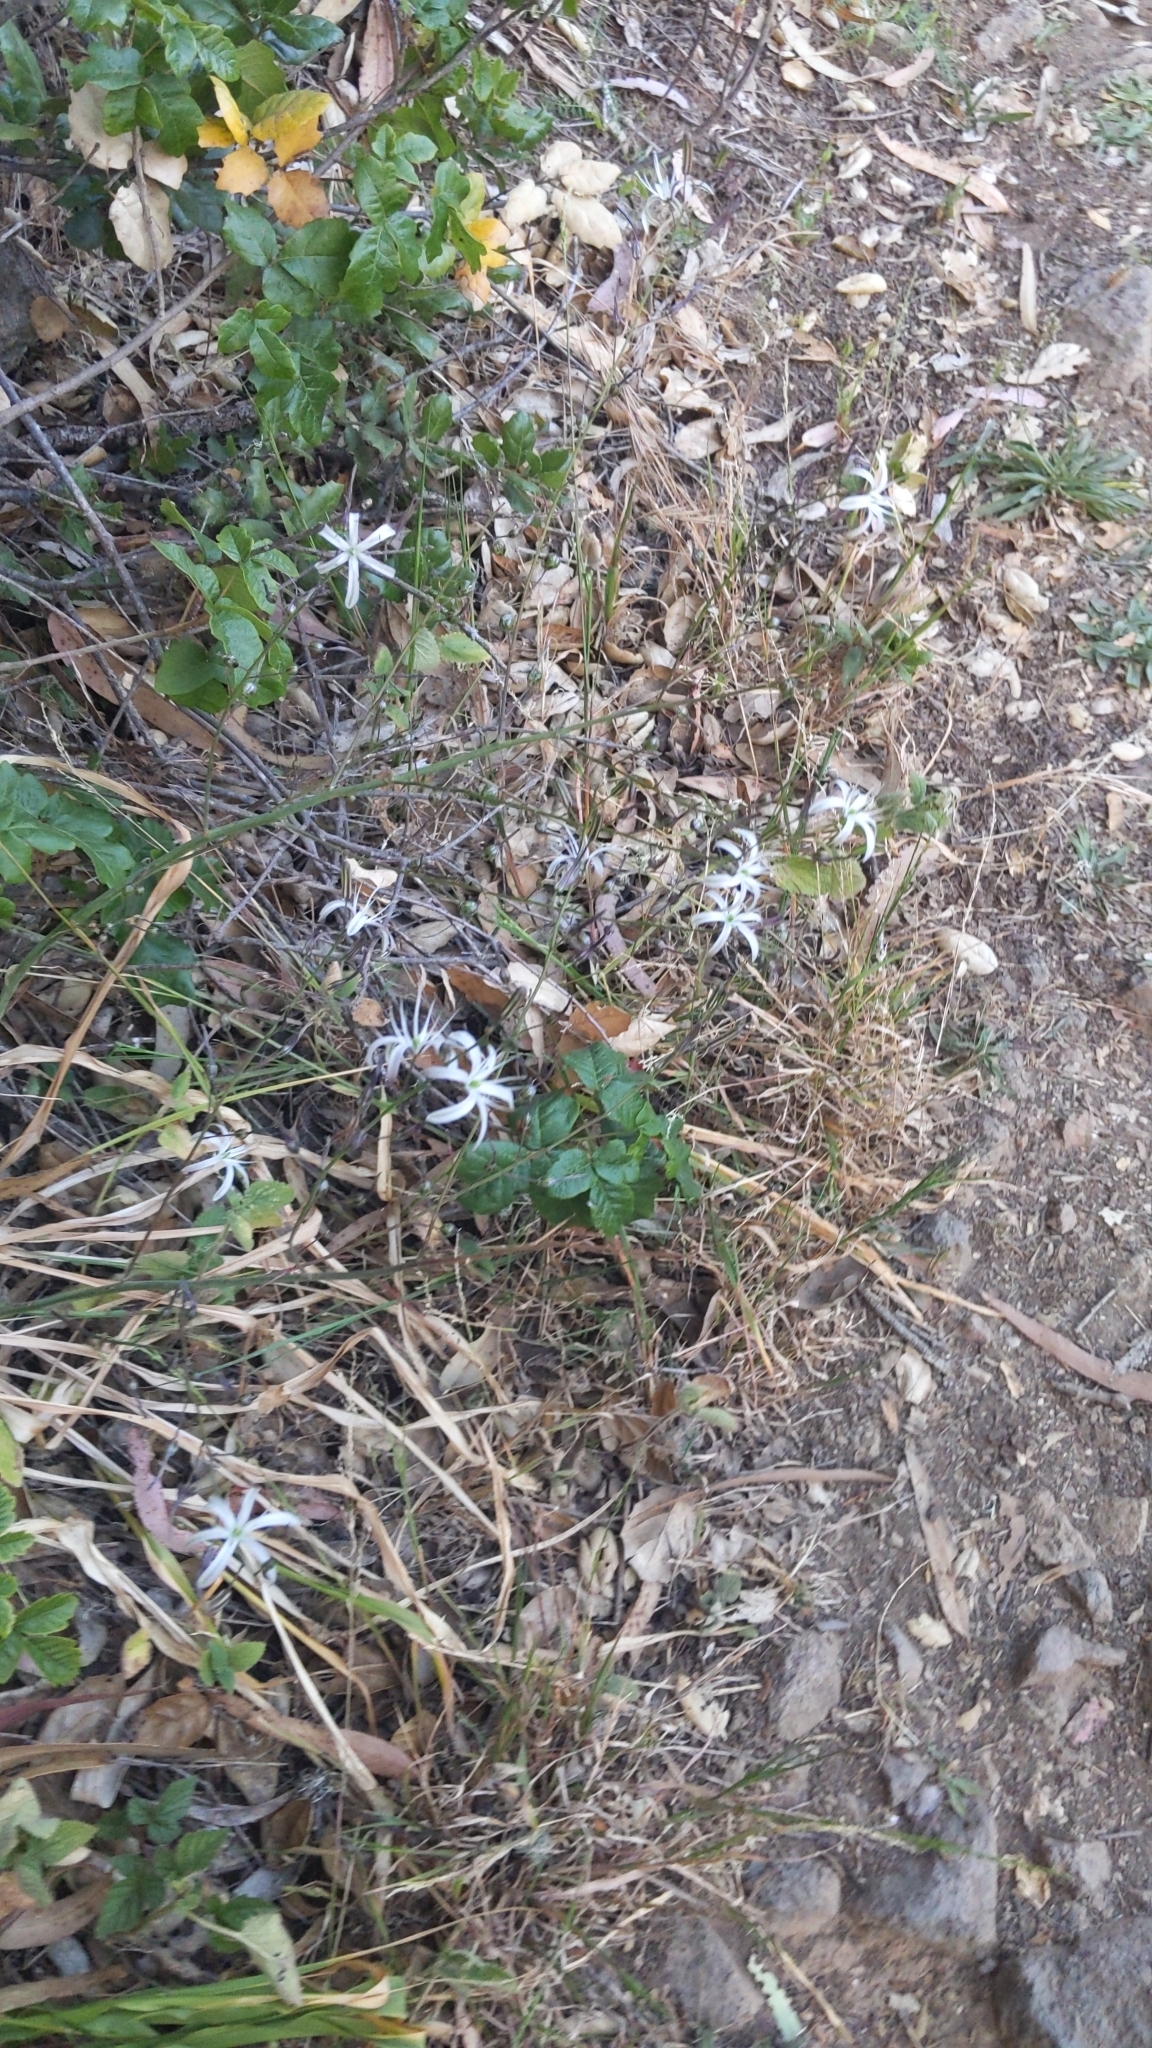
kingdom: Plantae
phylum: Tracheophyta
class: Liliopsida
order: Asparagales
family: Asparagaceae
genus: Chlorogalum
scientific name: Chlorogalum pomeridianum
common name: Amole
